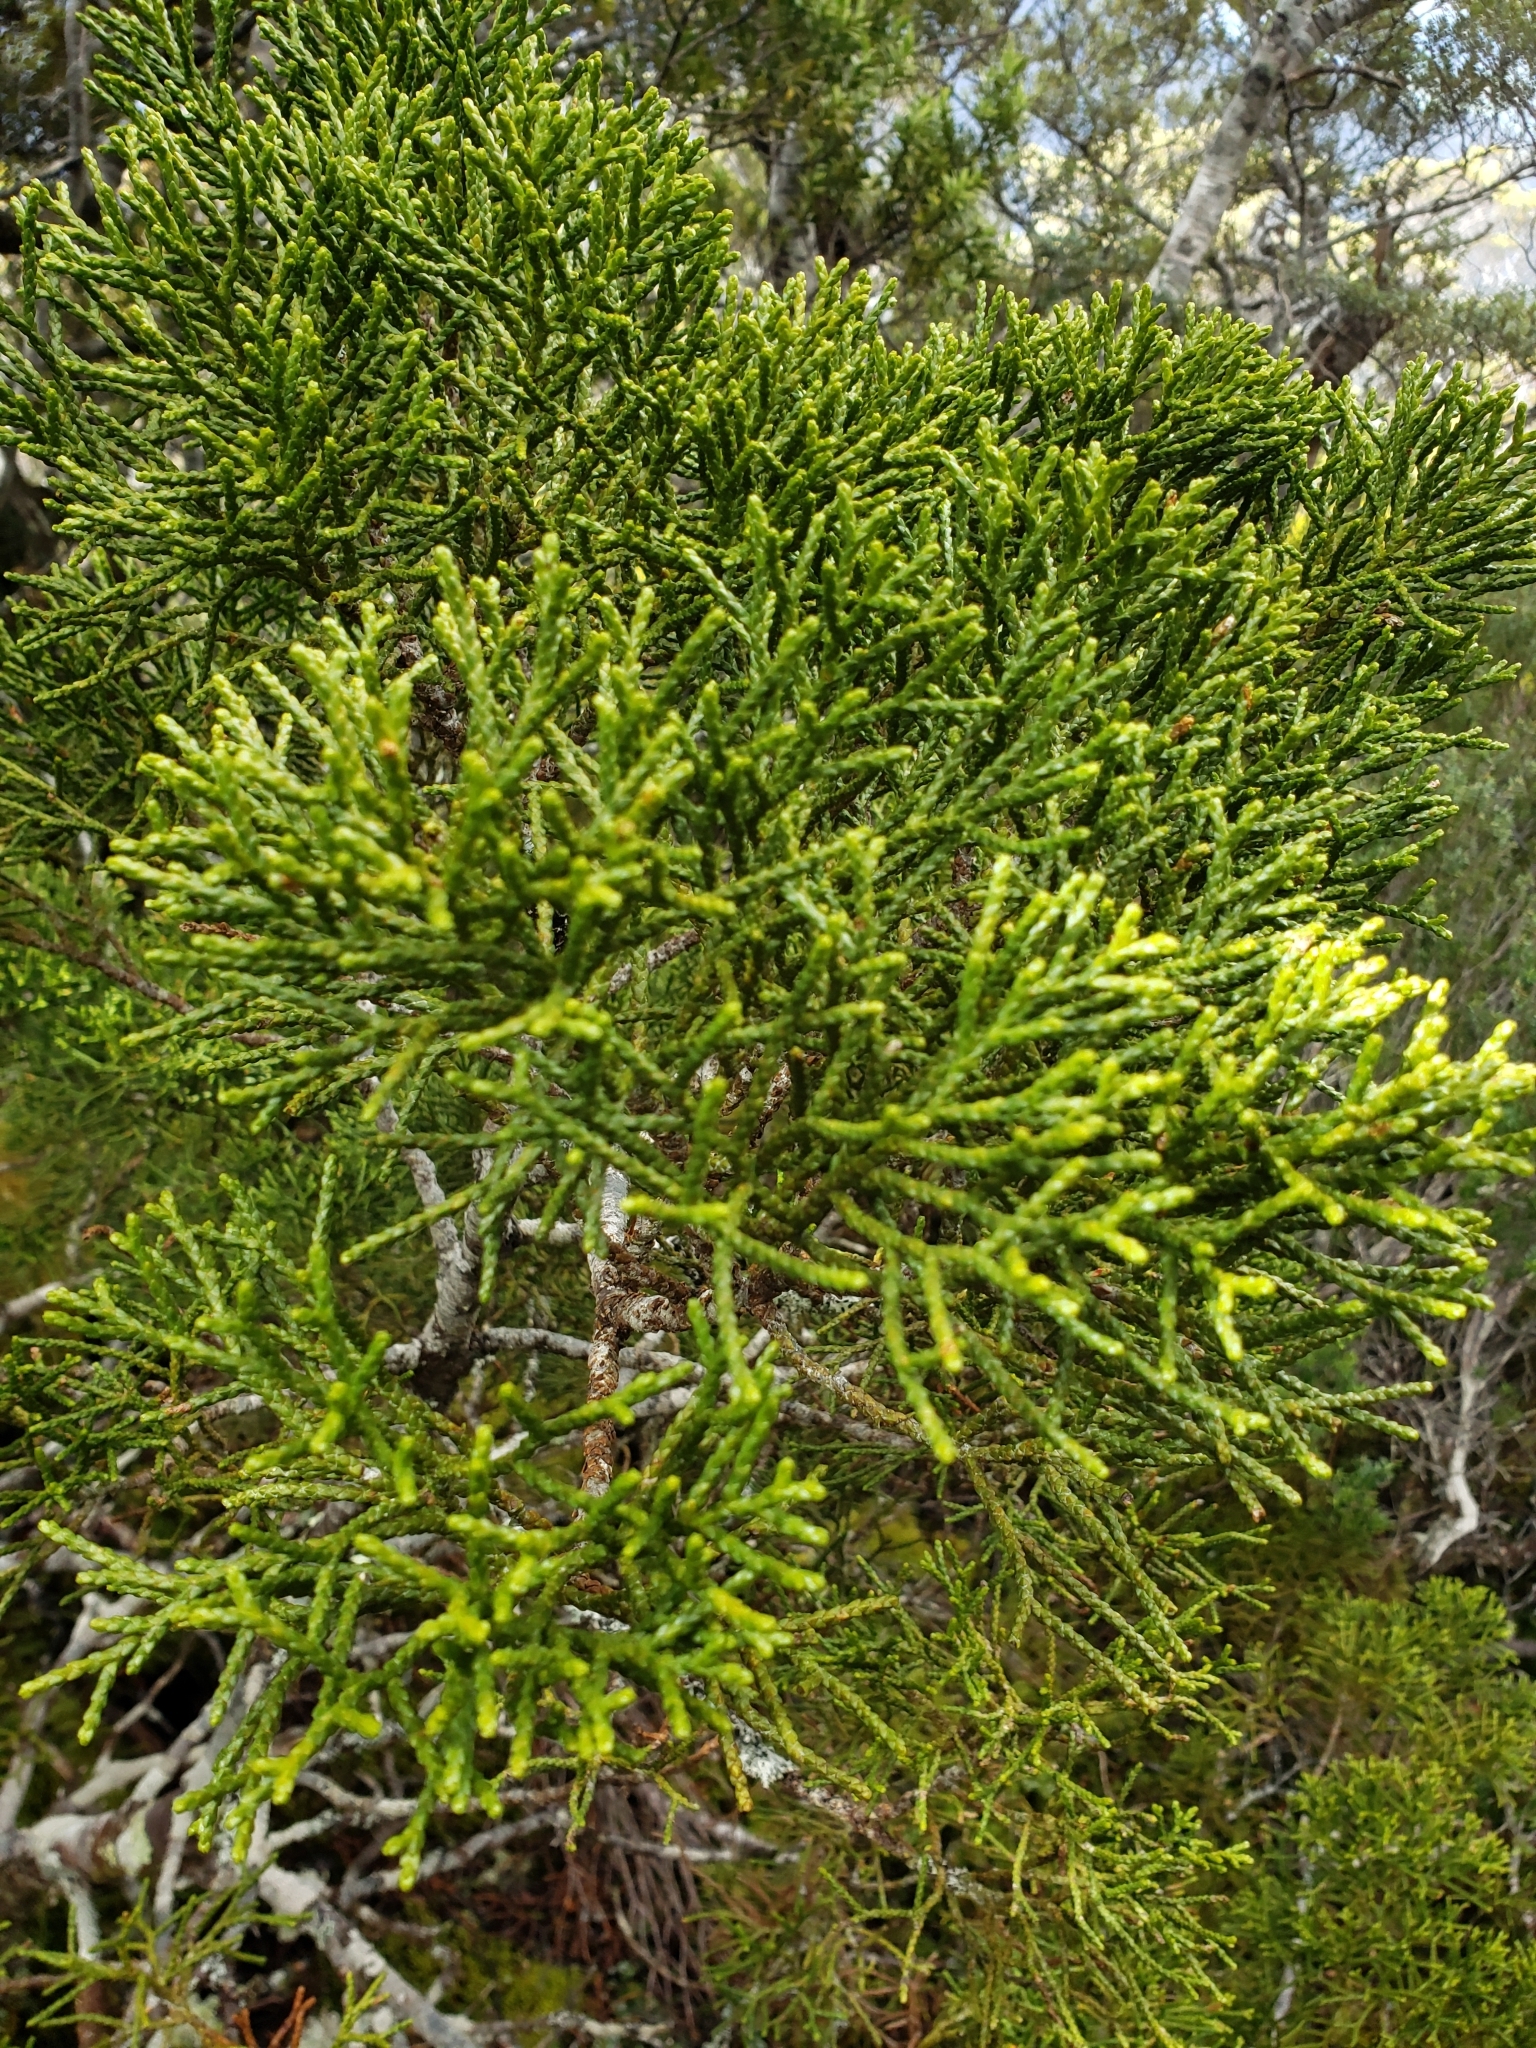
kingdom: Plantae
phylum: Tracheophyta
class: Pinopsida
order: Pinales
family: Podocarpaceae
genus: Halocarpus
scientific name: Halocarpus biformis
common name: Alpine tarwood
